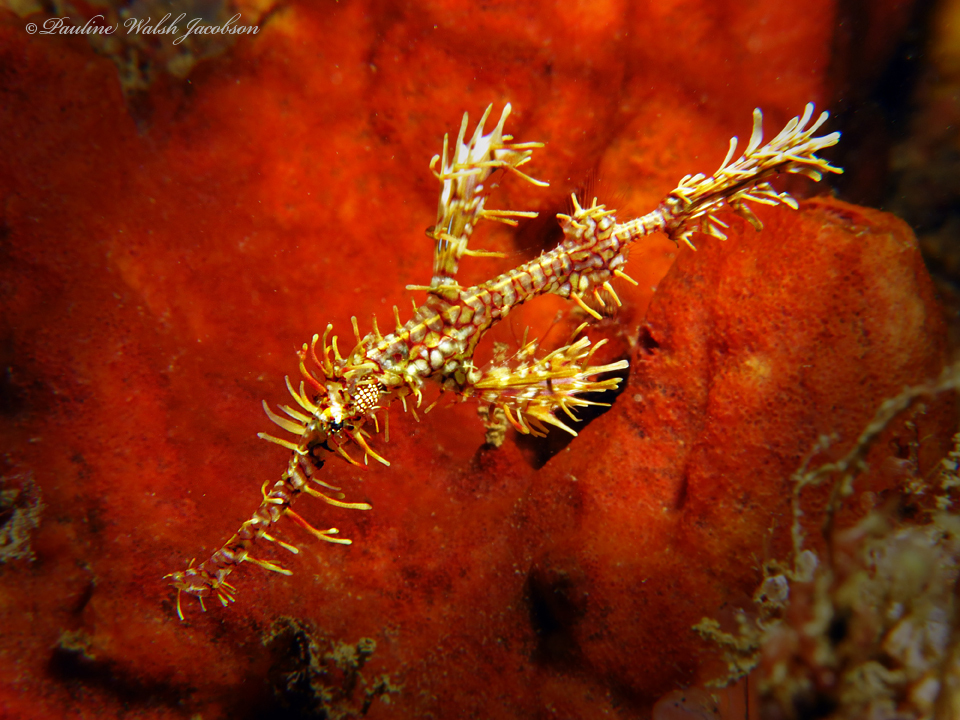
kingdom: Animalia
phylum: Chordata
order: Syngnathiformes
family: Solenostomidae
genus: Solenostomus
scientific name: Solenostomus paradoxus
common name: Ghost pipefish
